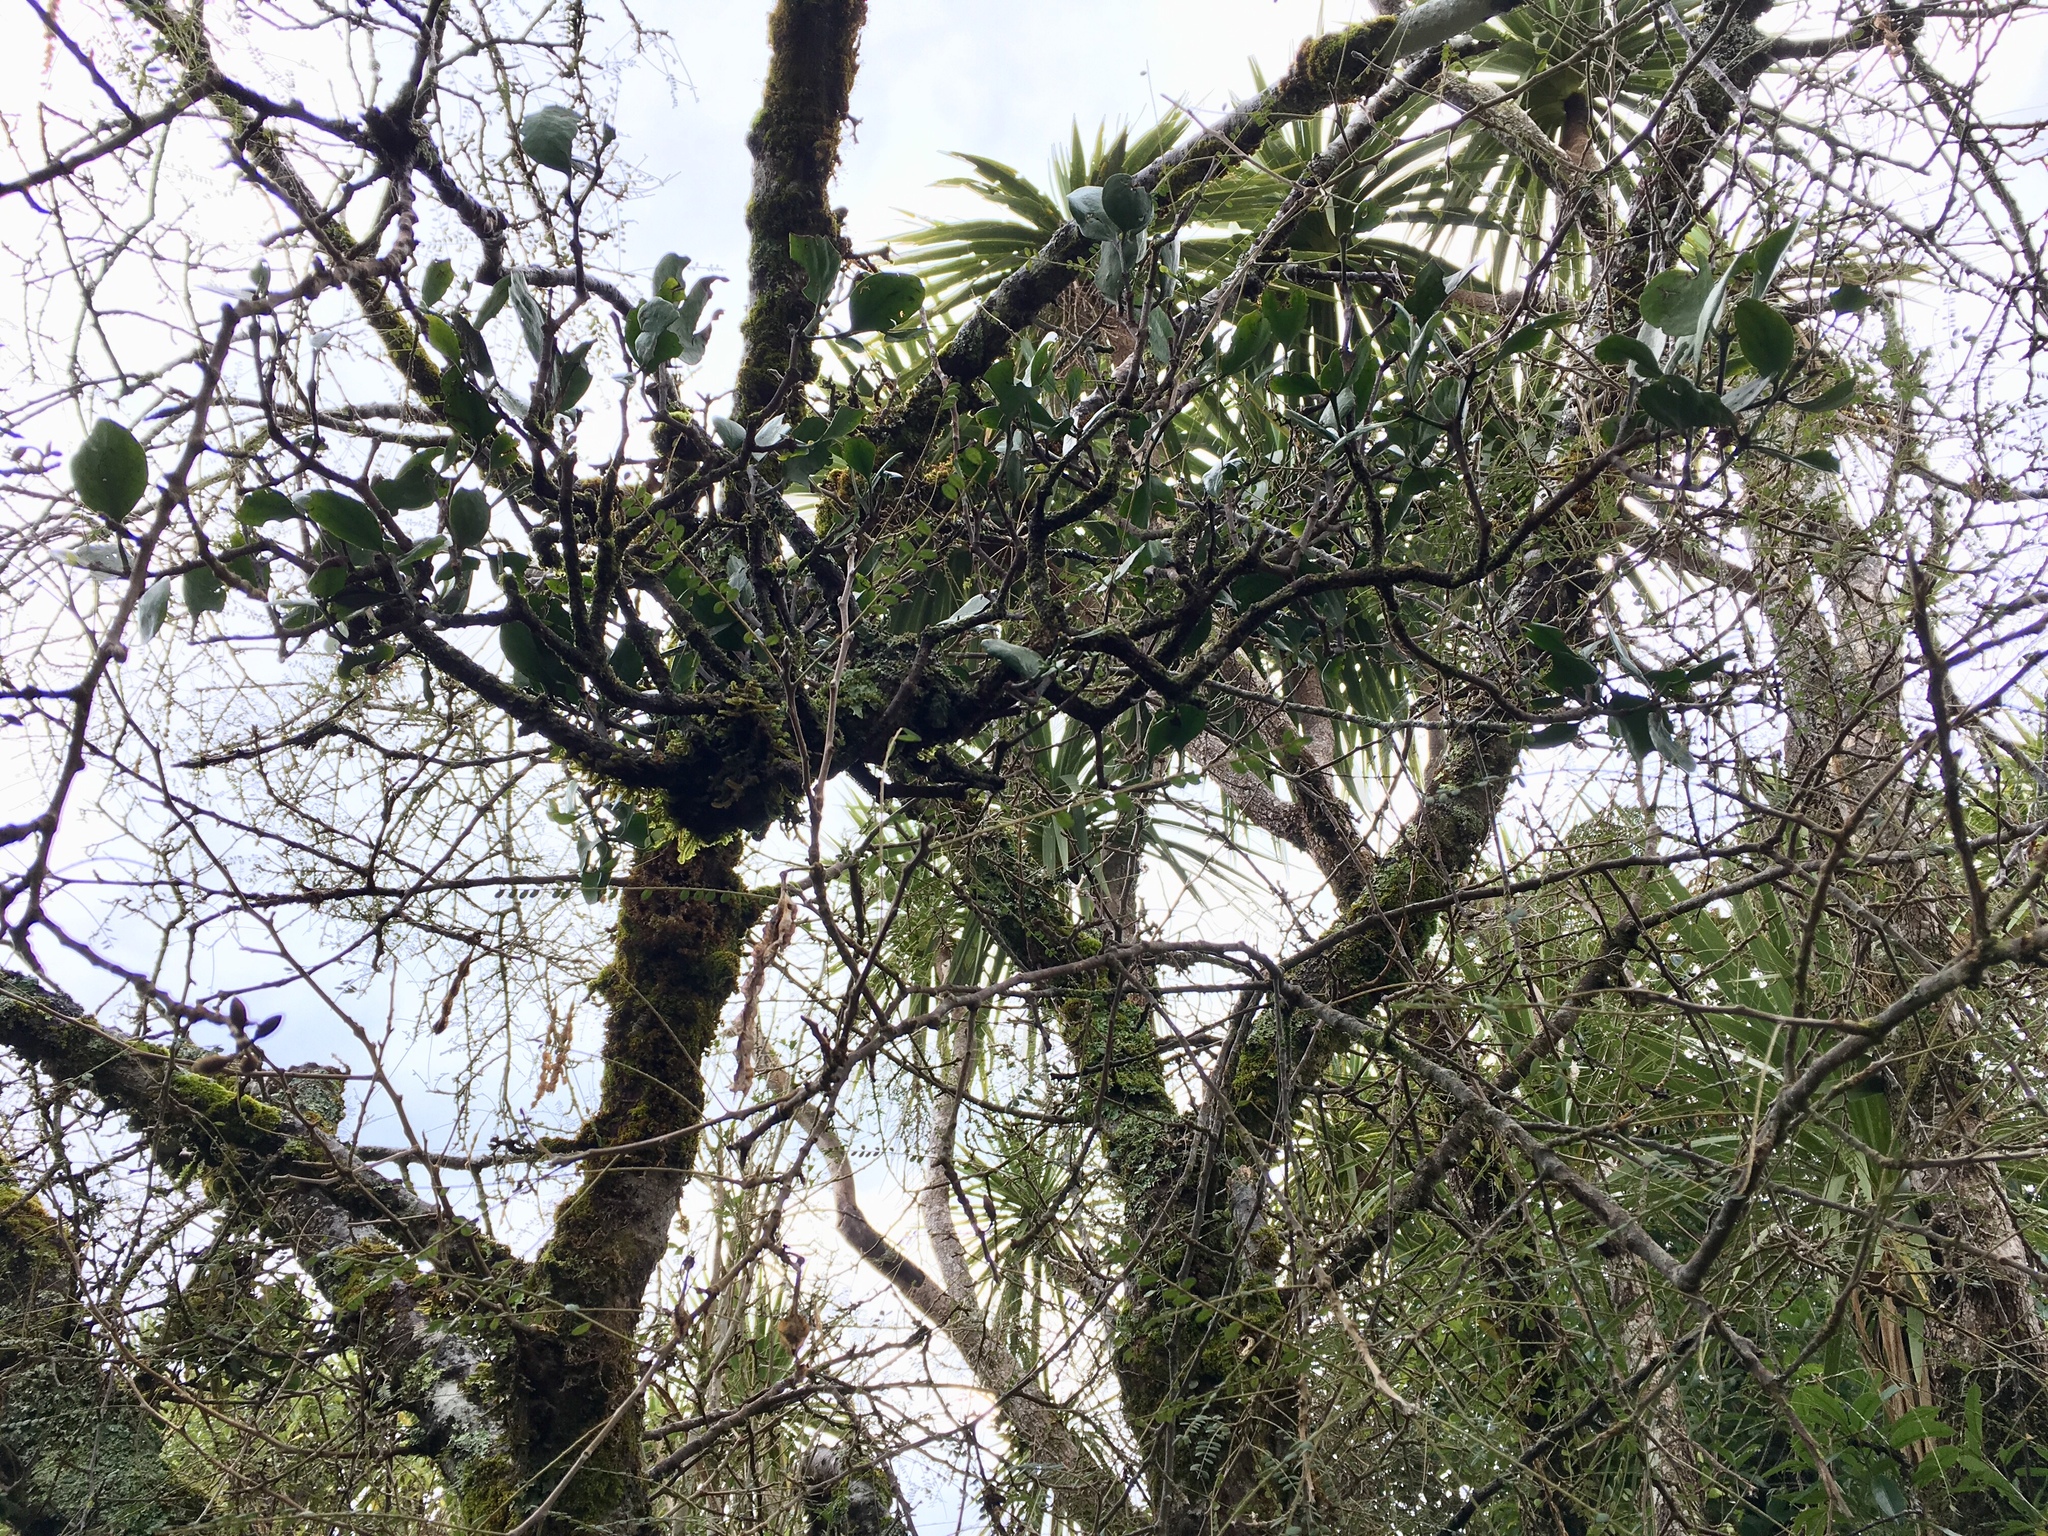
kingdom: Plantae
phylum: Tracheophyta
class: Magnoliopsida
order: Santalales
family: Loranthaceae
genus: Ileostylus
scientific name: Ileostylus micranthus
